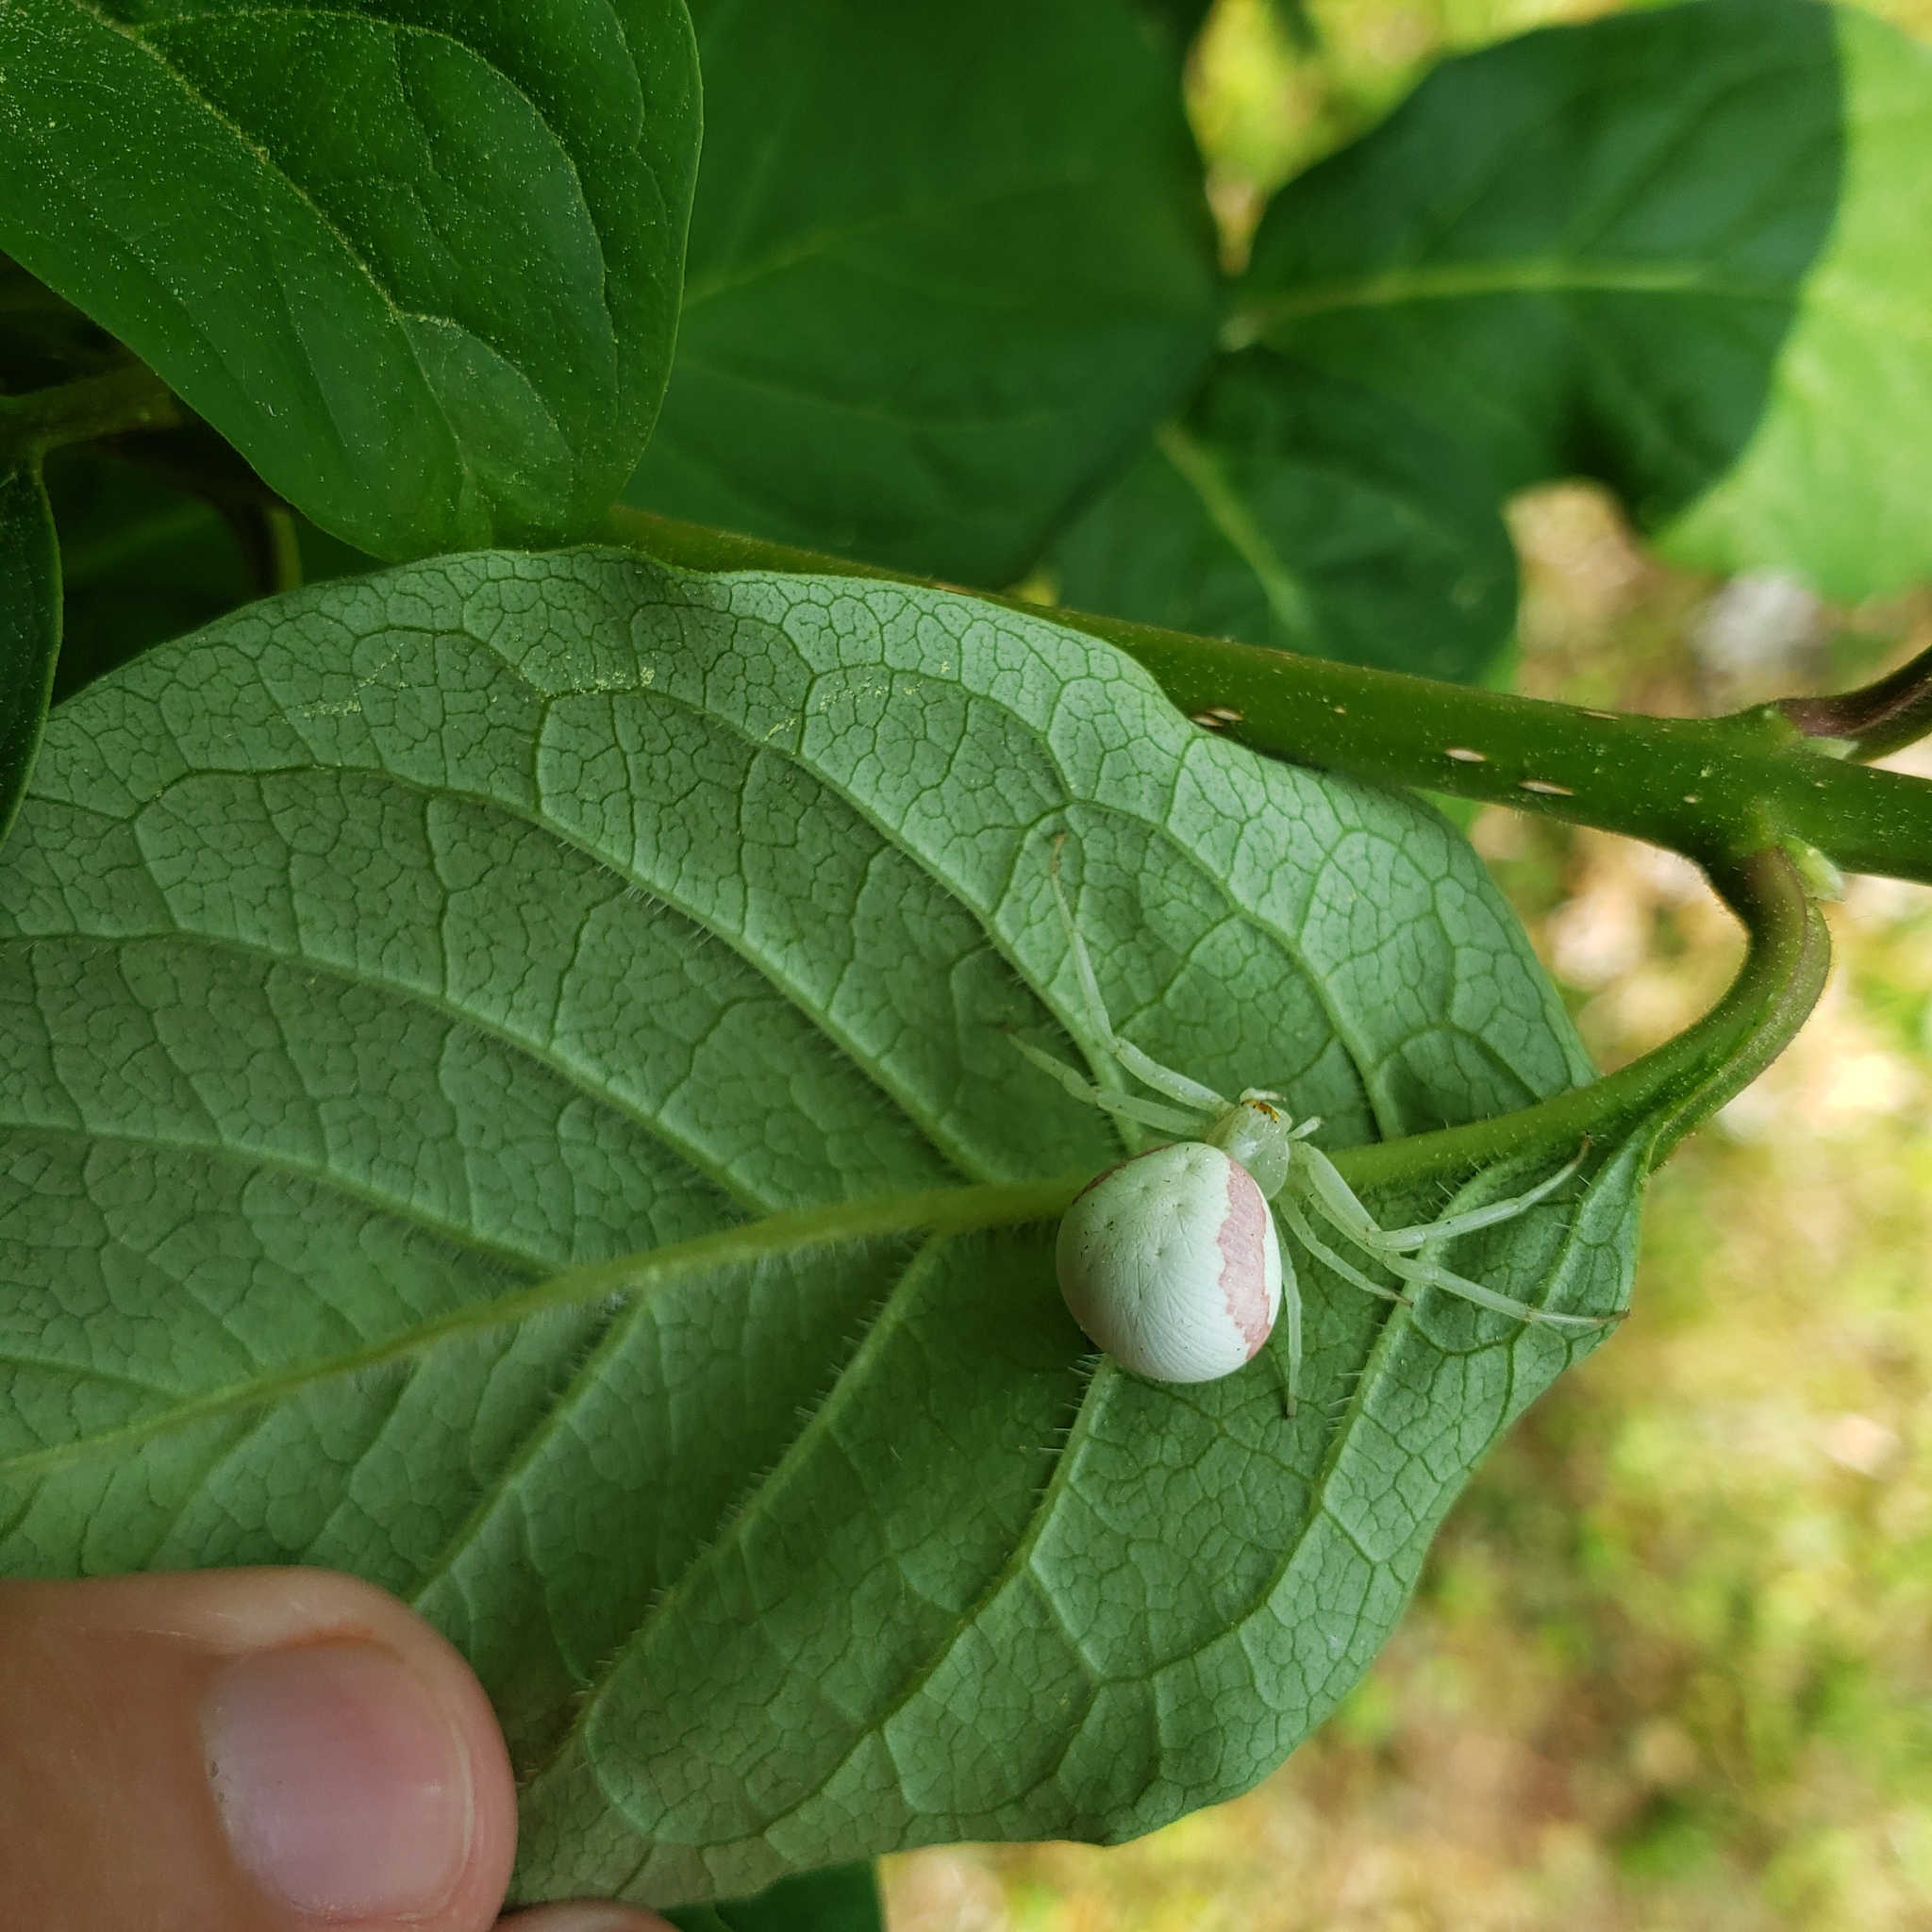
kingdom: Animalia
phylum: Arthropoda
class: Arachnida
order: Araneae
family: Thomisidae
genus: Misumena
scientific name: Misumena vatia
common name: Goldenrod crab spider
